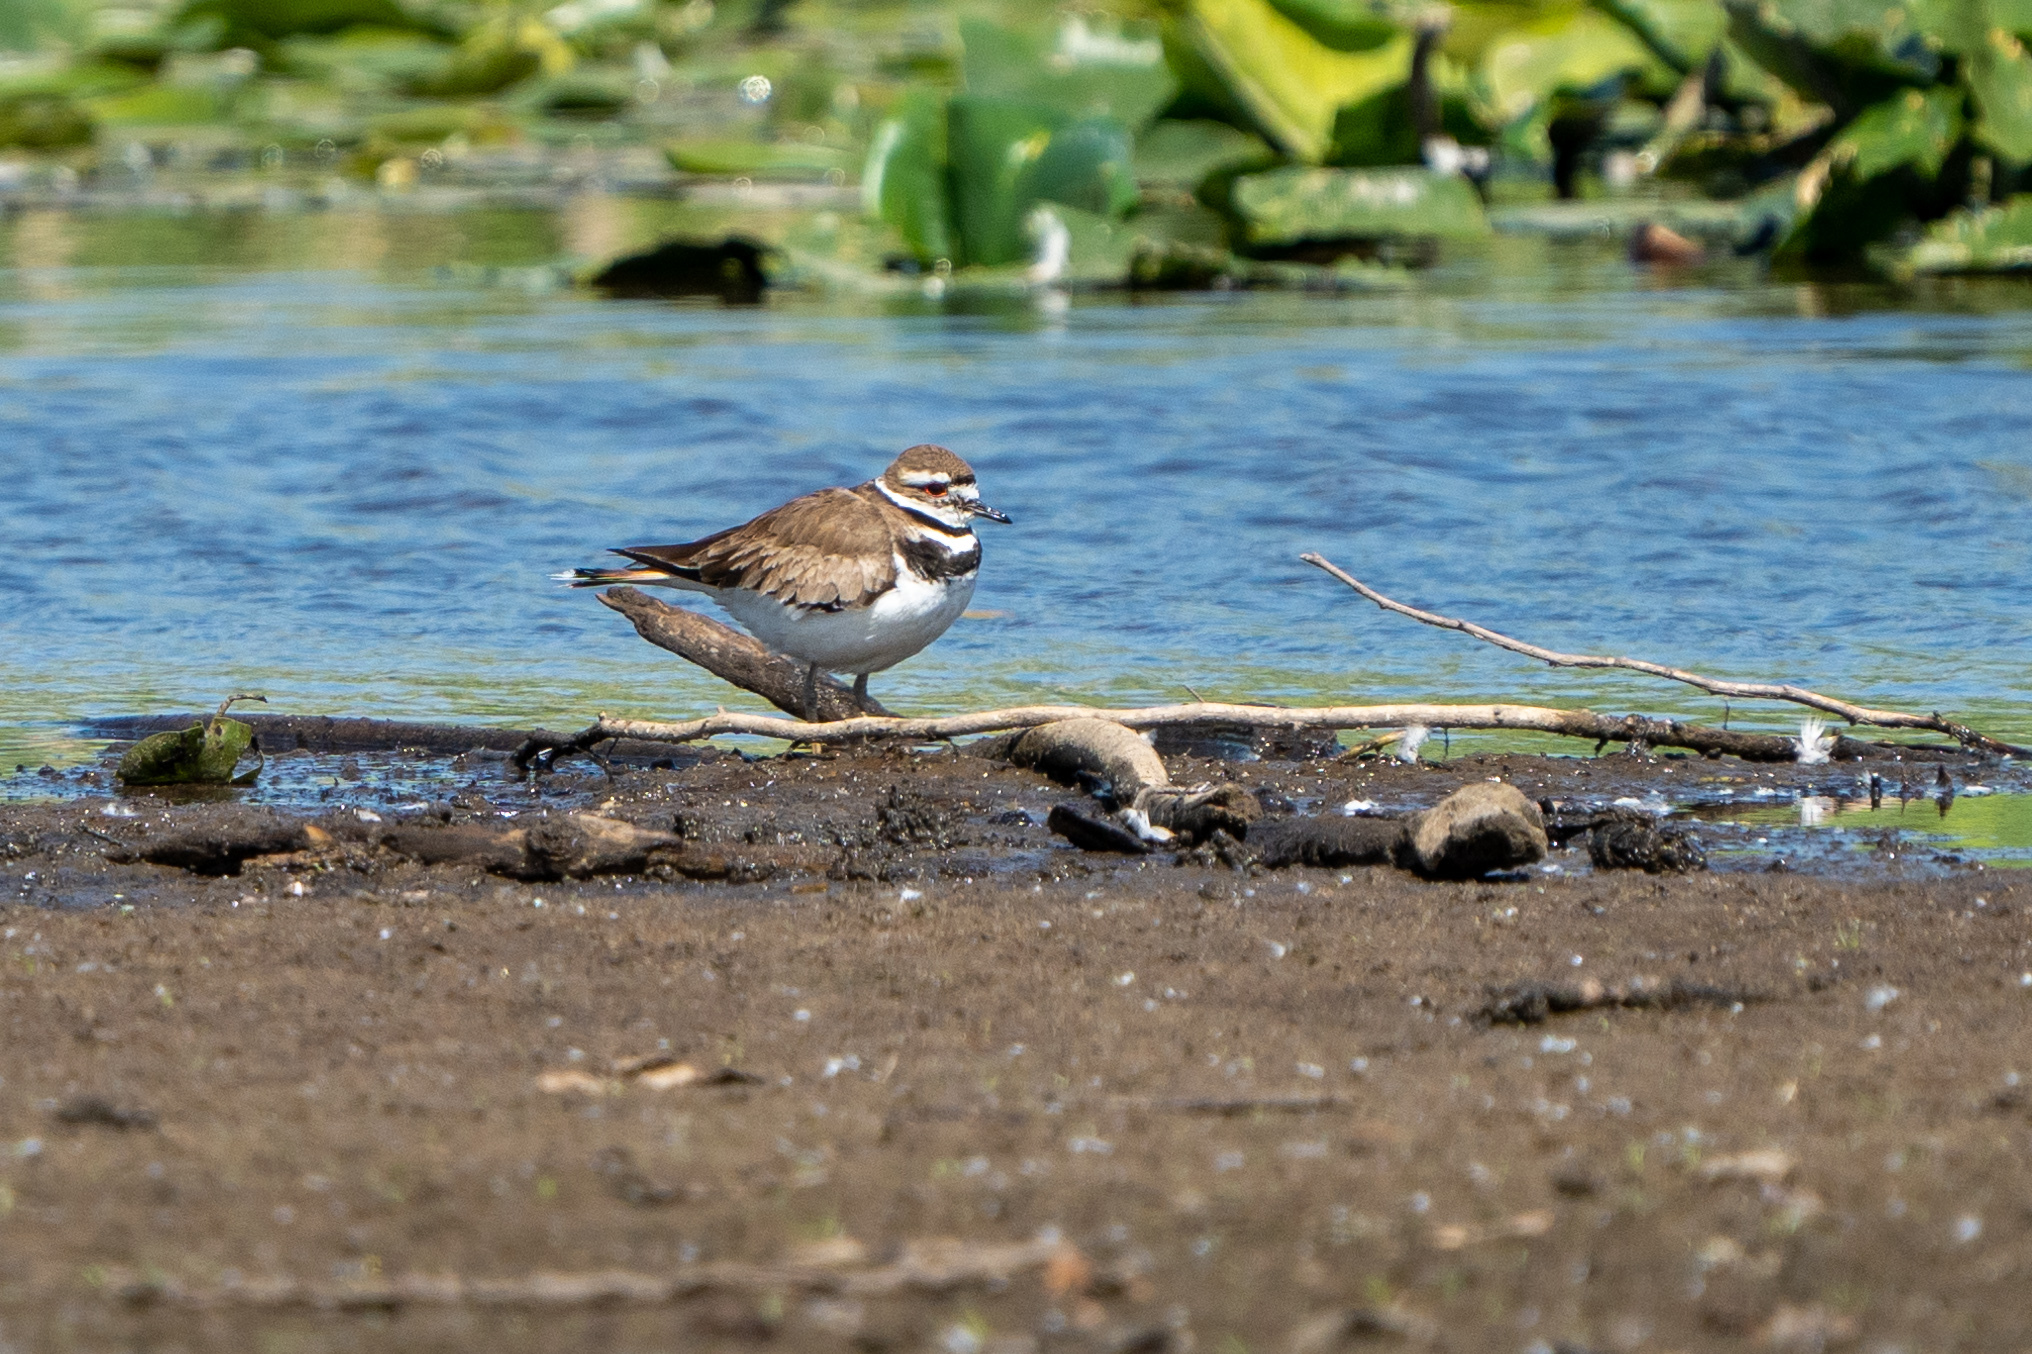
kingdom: Animalia
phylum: Chordata
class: Aves
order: Charadriiformes
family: Charadriidae
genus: Charadrius
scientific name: Charadrius vociferus
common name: Killdeer
